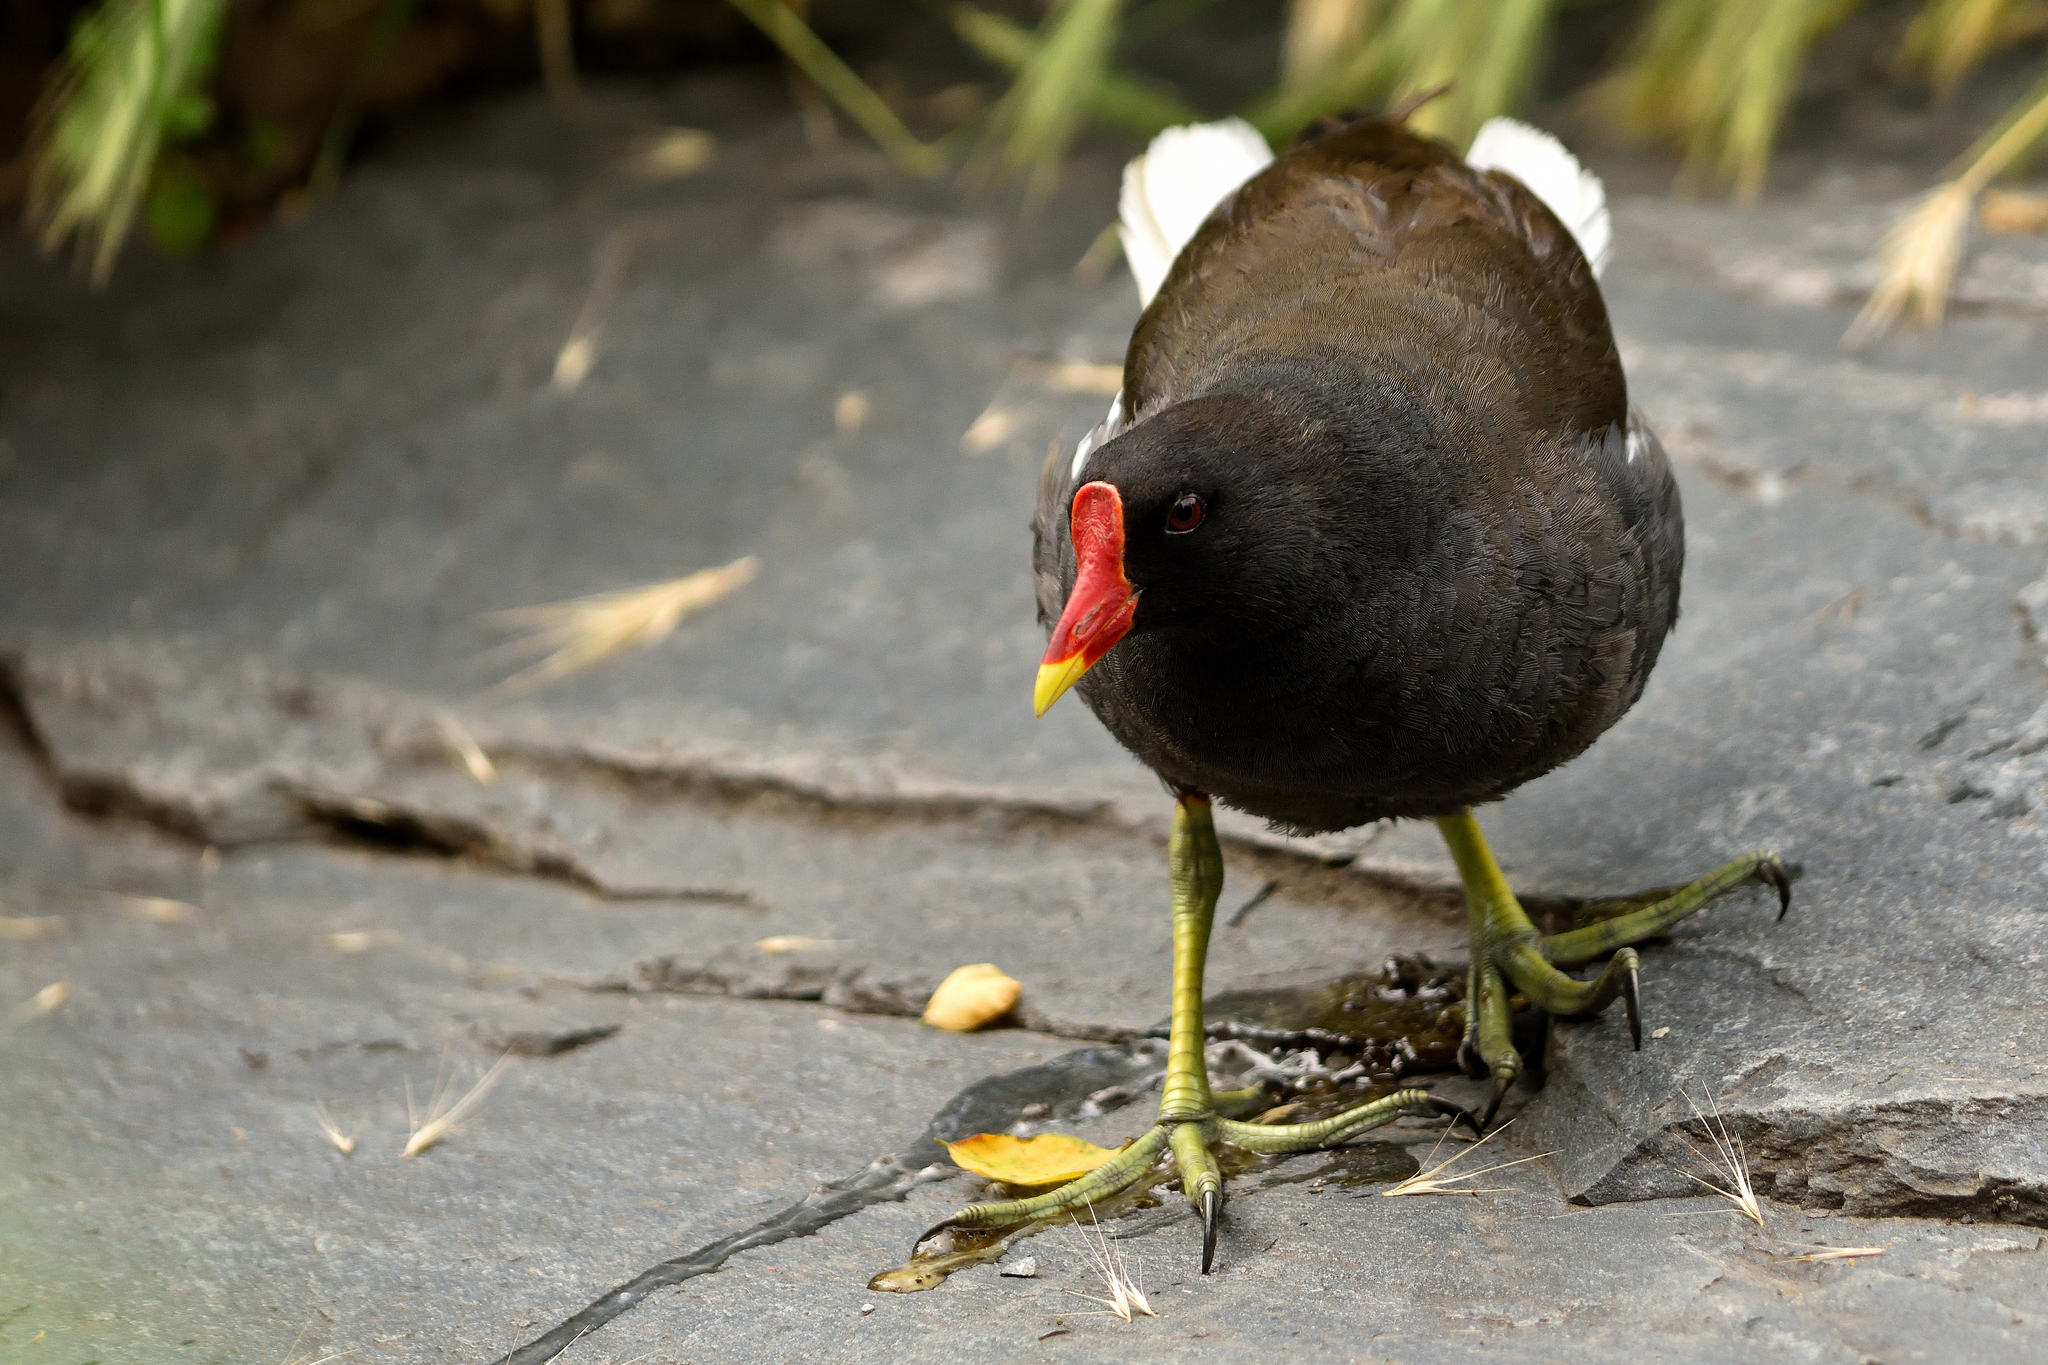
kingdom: Animalia
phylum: Chordata
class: Aves
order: Gruiformes
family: Rallidae
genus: Gallinula
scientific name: Gallinula chloropus
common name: Common moorhen
